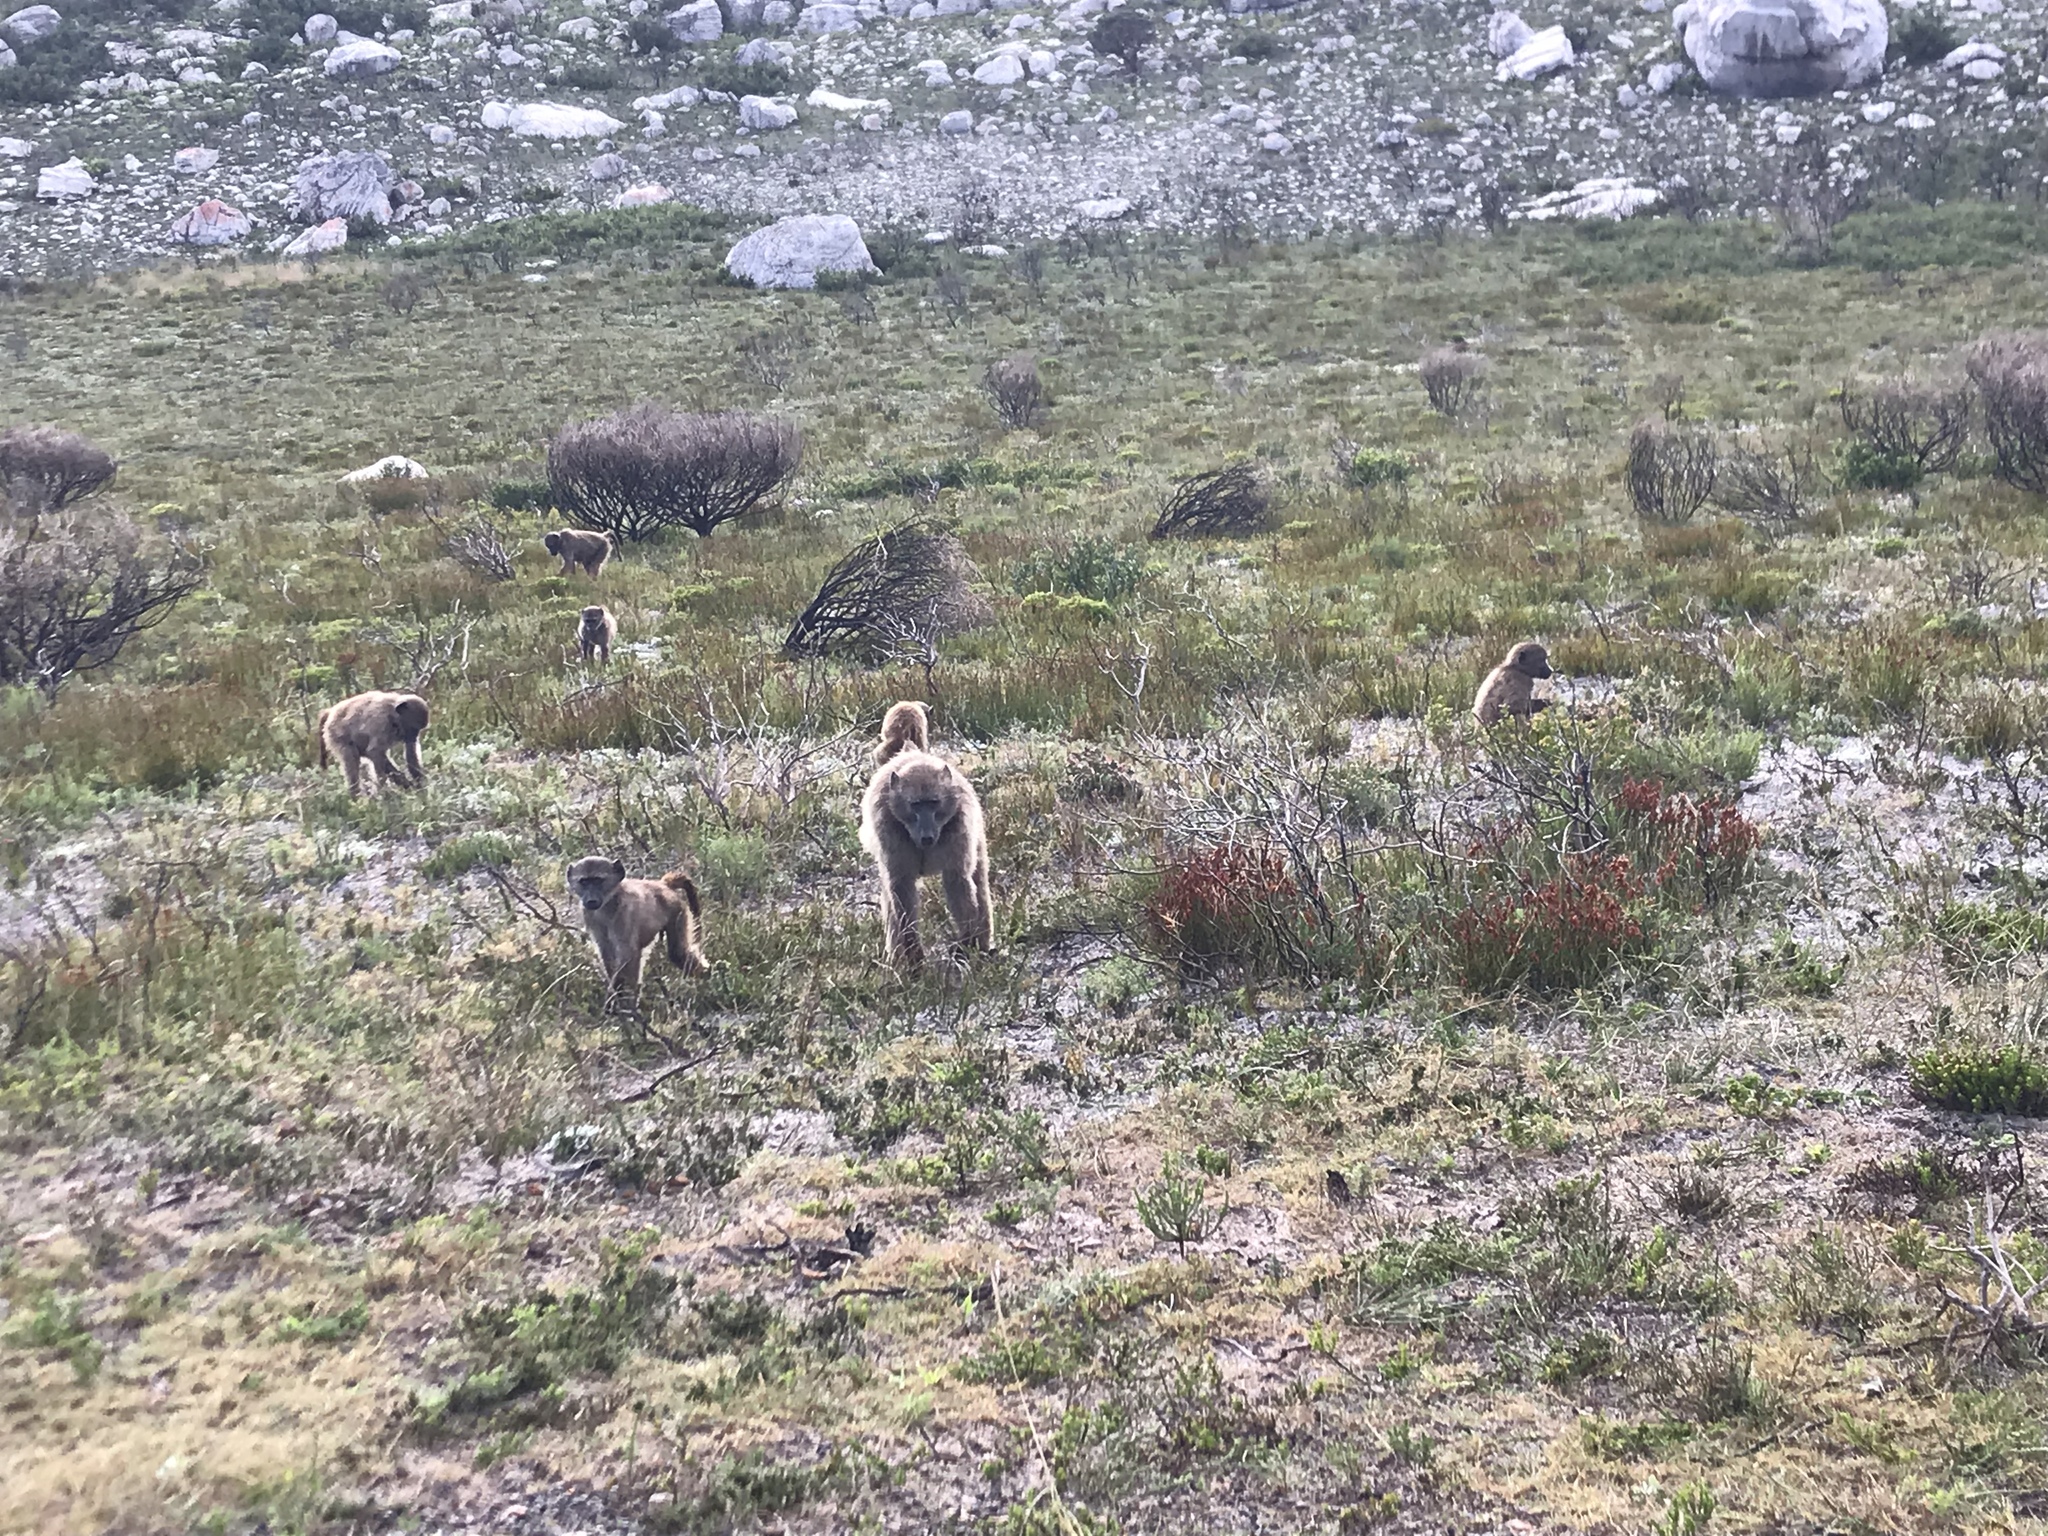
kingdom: Animalia
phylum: Chordata
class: Mammalia
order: Primates
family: Cercopithecidae
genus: Papio
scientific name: Papio ursinus
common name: Chacma baboon
